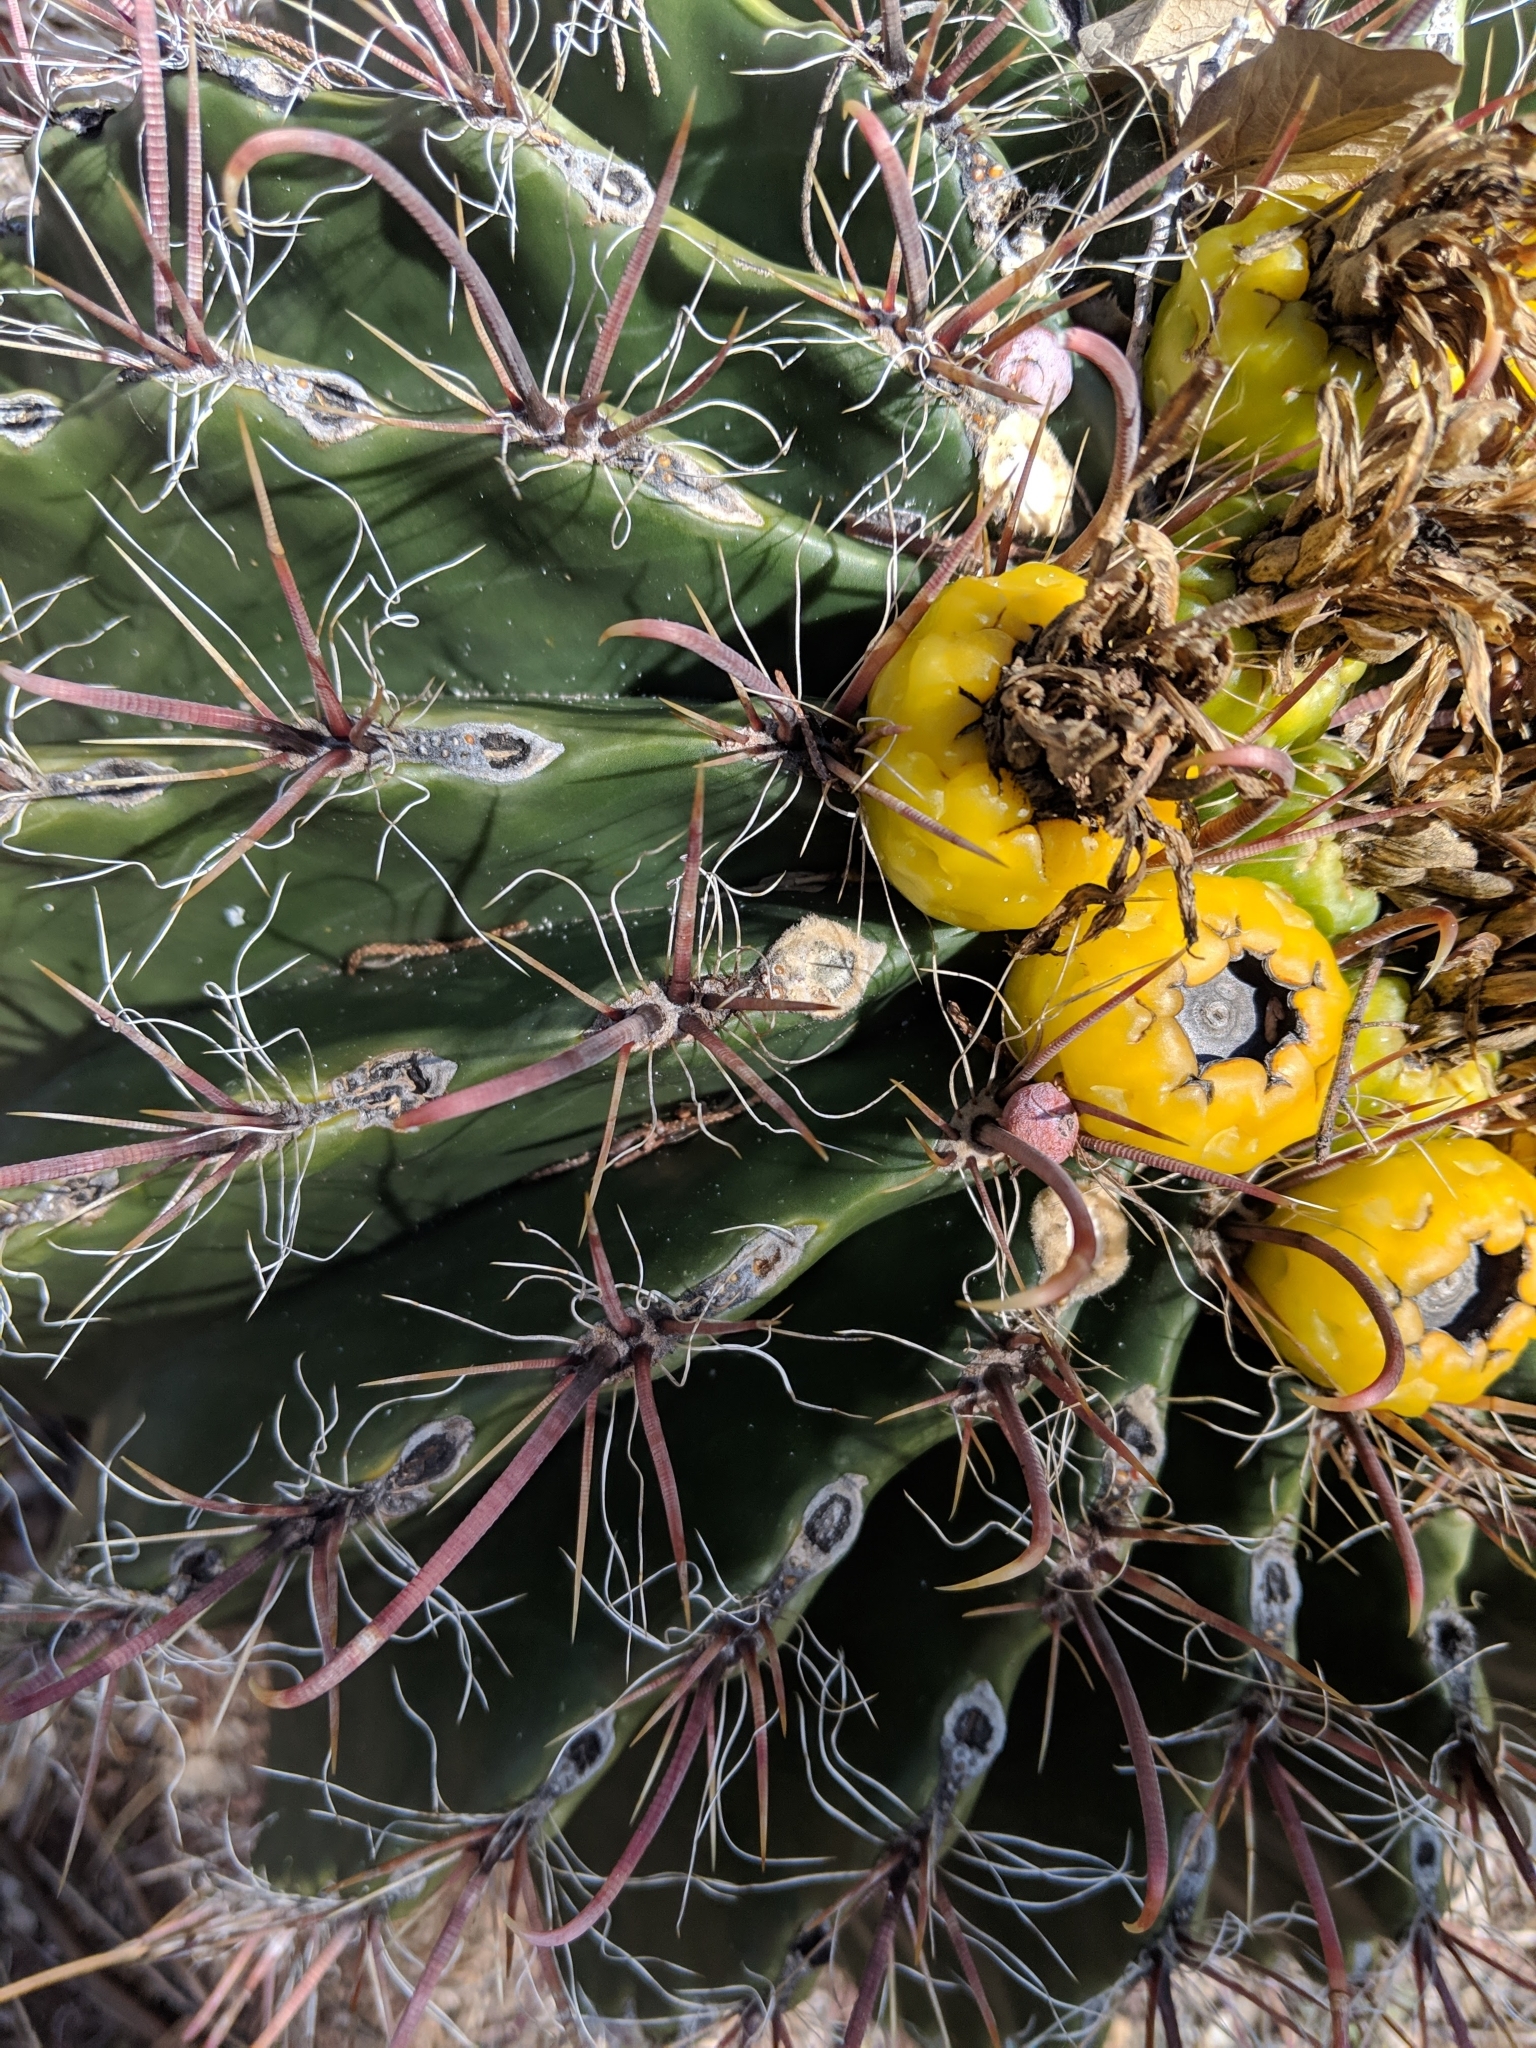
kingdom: Plantae
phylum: Tracheophyta
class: Magnoliopsida
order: Caryophyllales
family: Cactaceae
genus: Ferocactus
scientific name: Ferocactus wislizeni
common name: Candy barrel cactus
